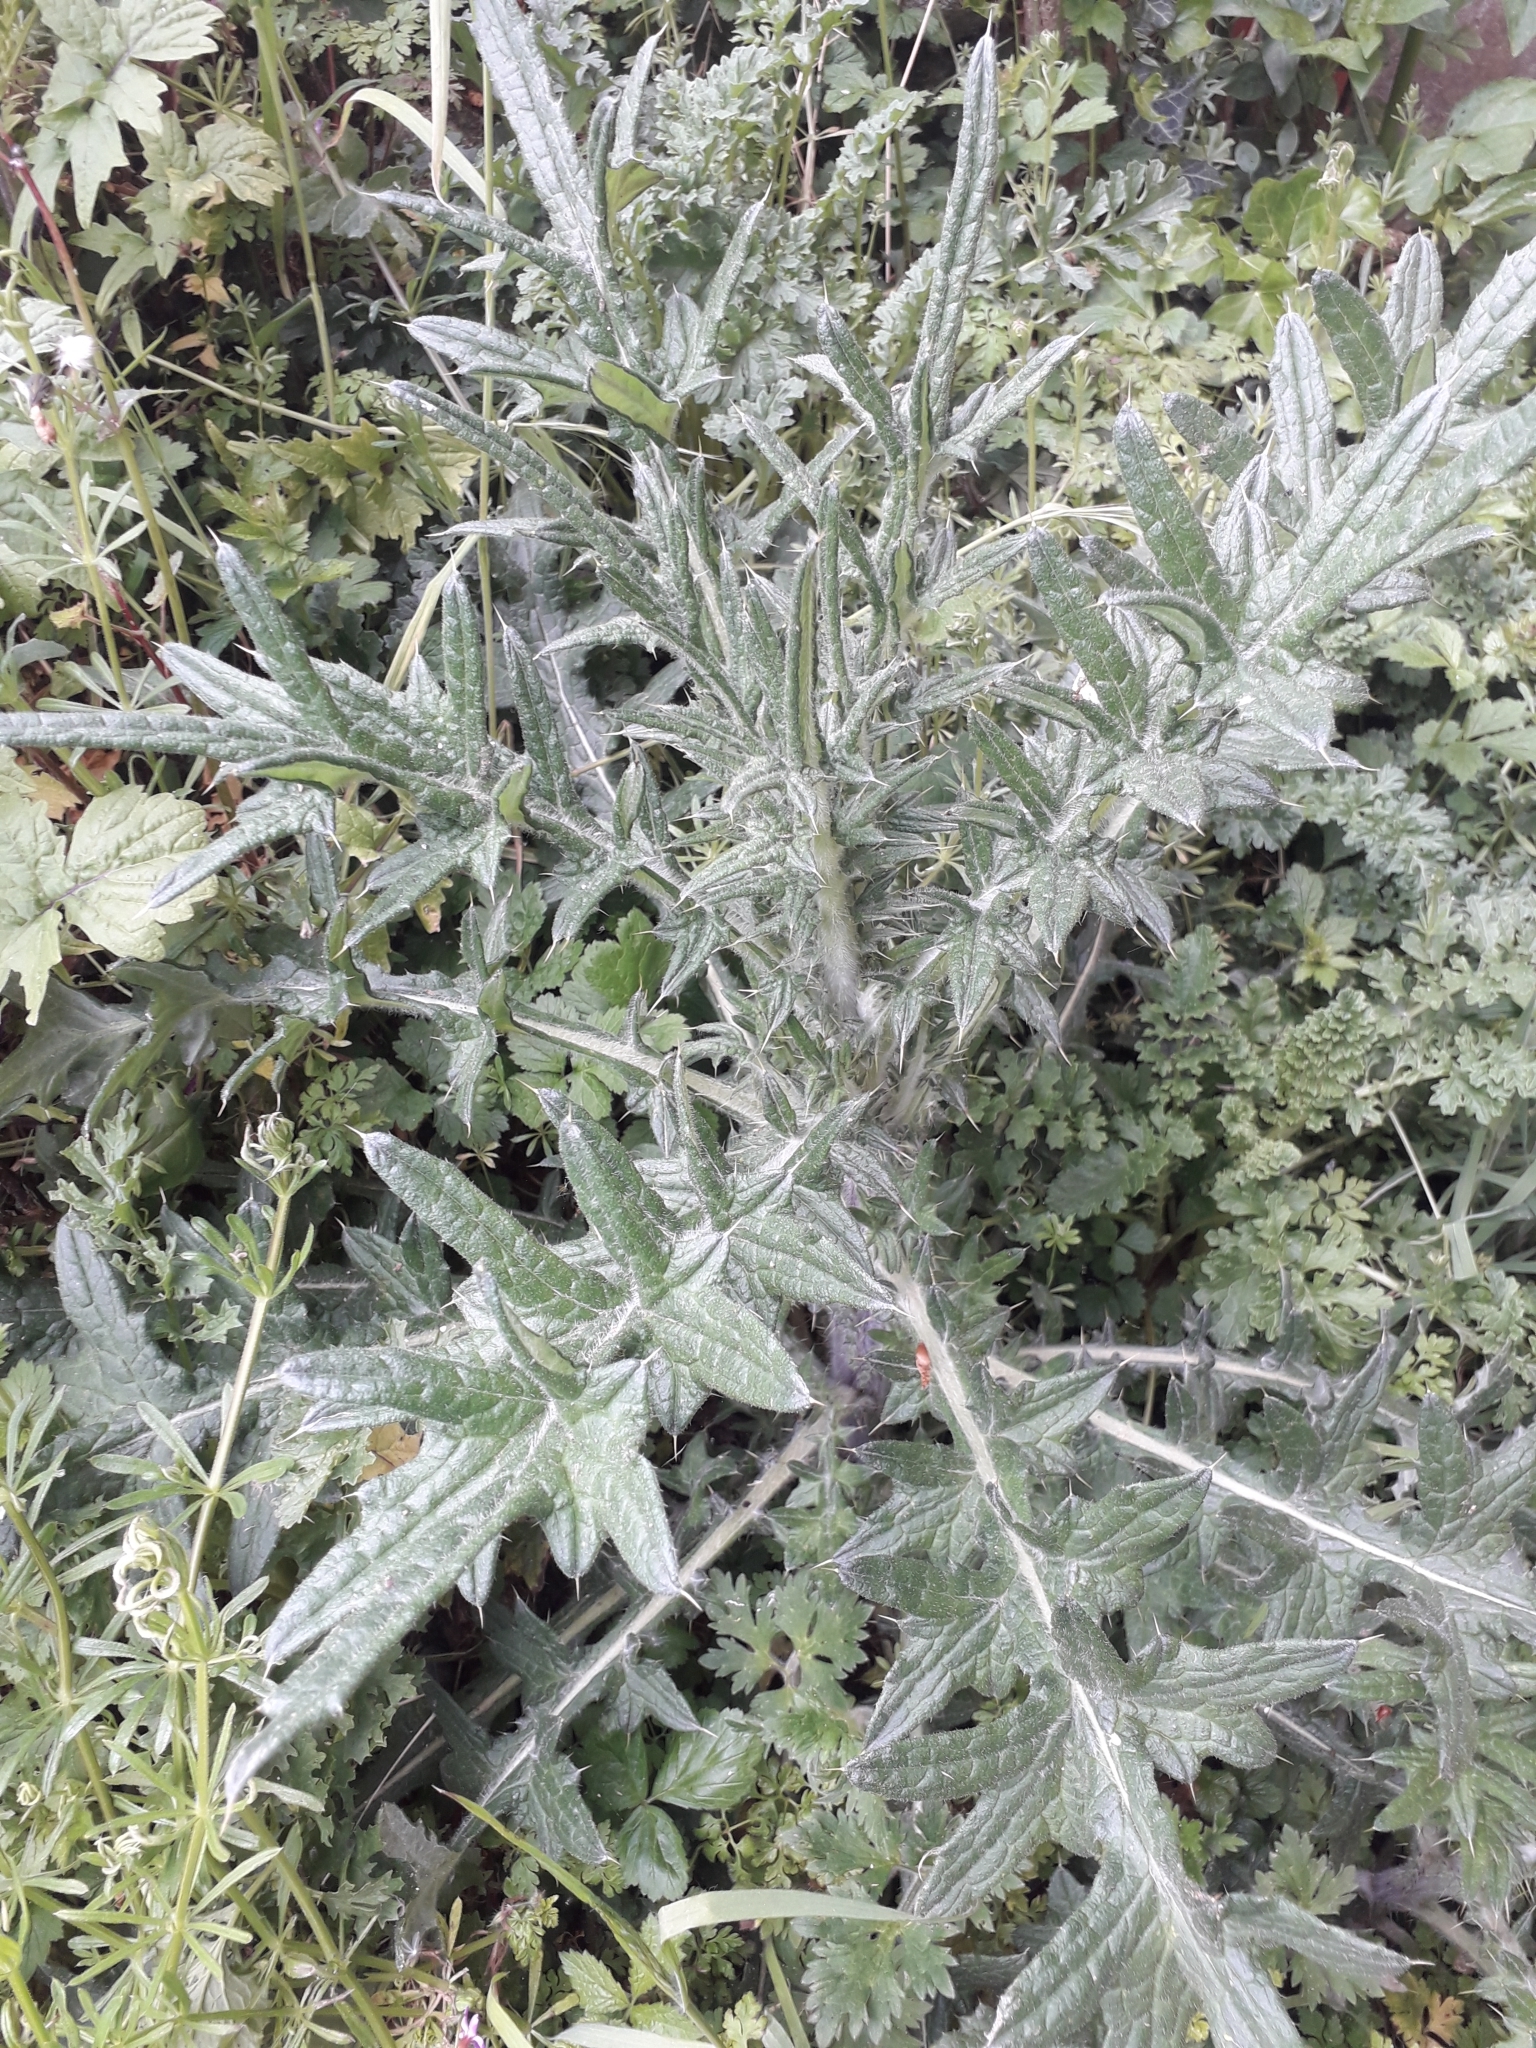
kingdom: Plantae
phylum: Tracheophyta
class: Magnoliopsida
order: Asterales
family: Asteraceae
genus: Cirsium
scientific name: Cirsium vulgare
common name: Bull thistle
